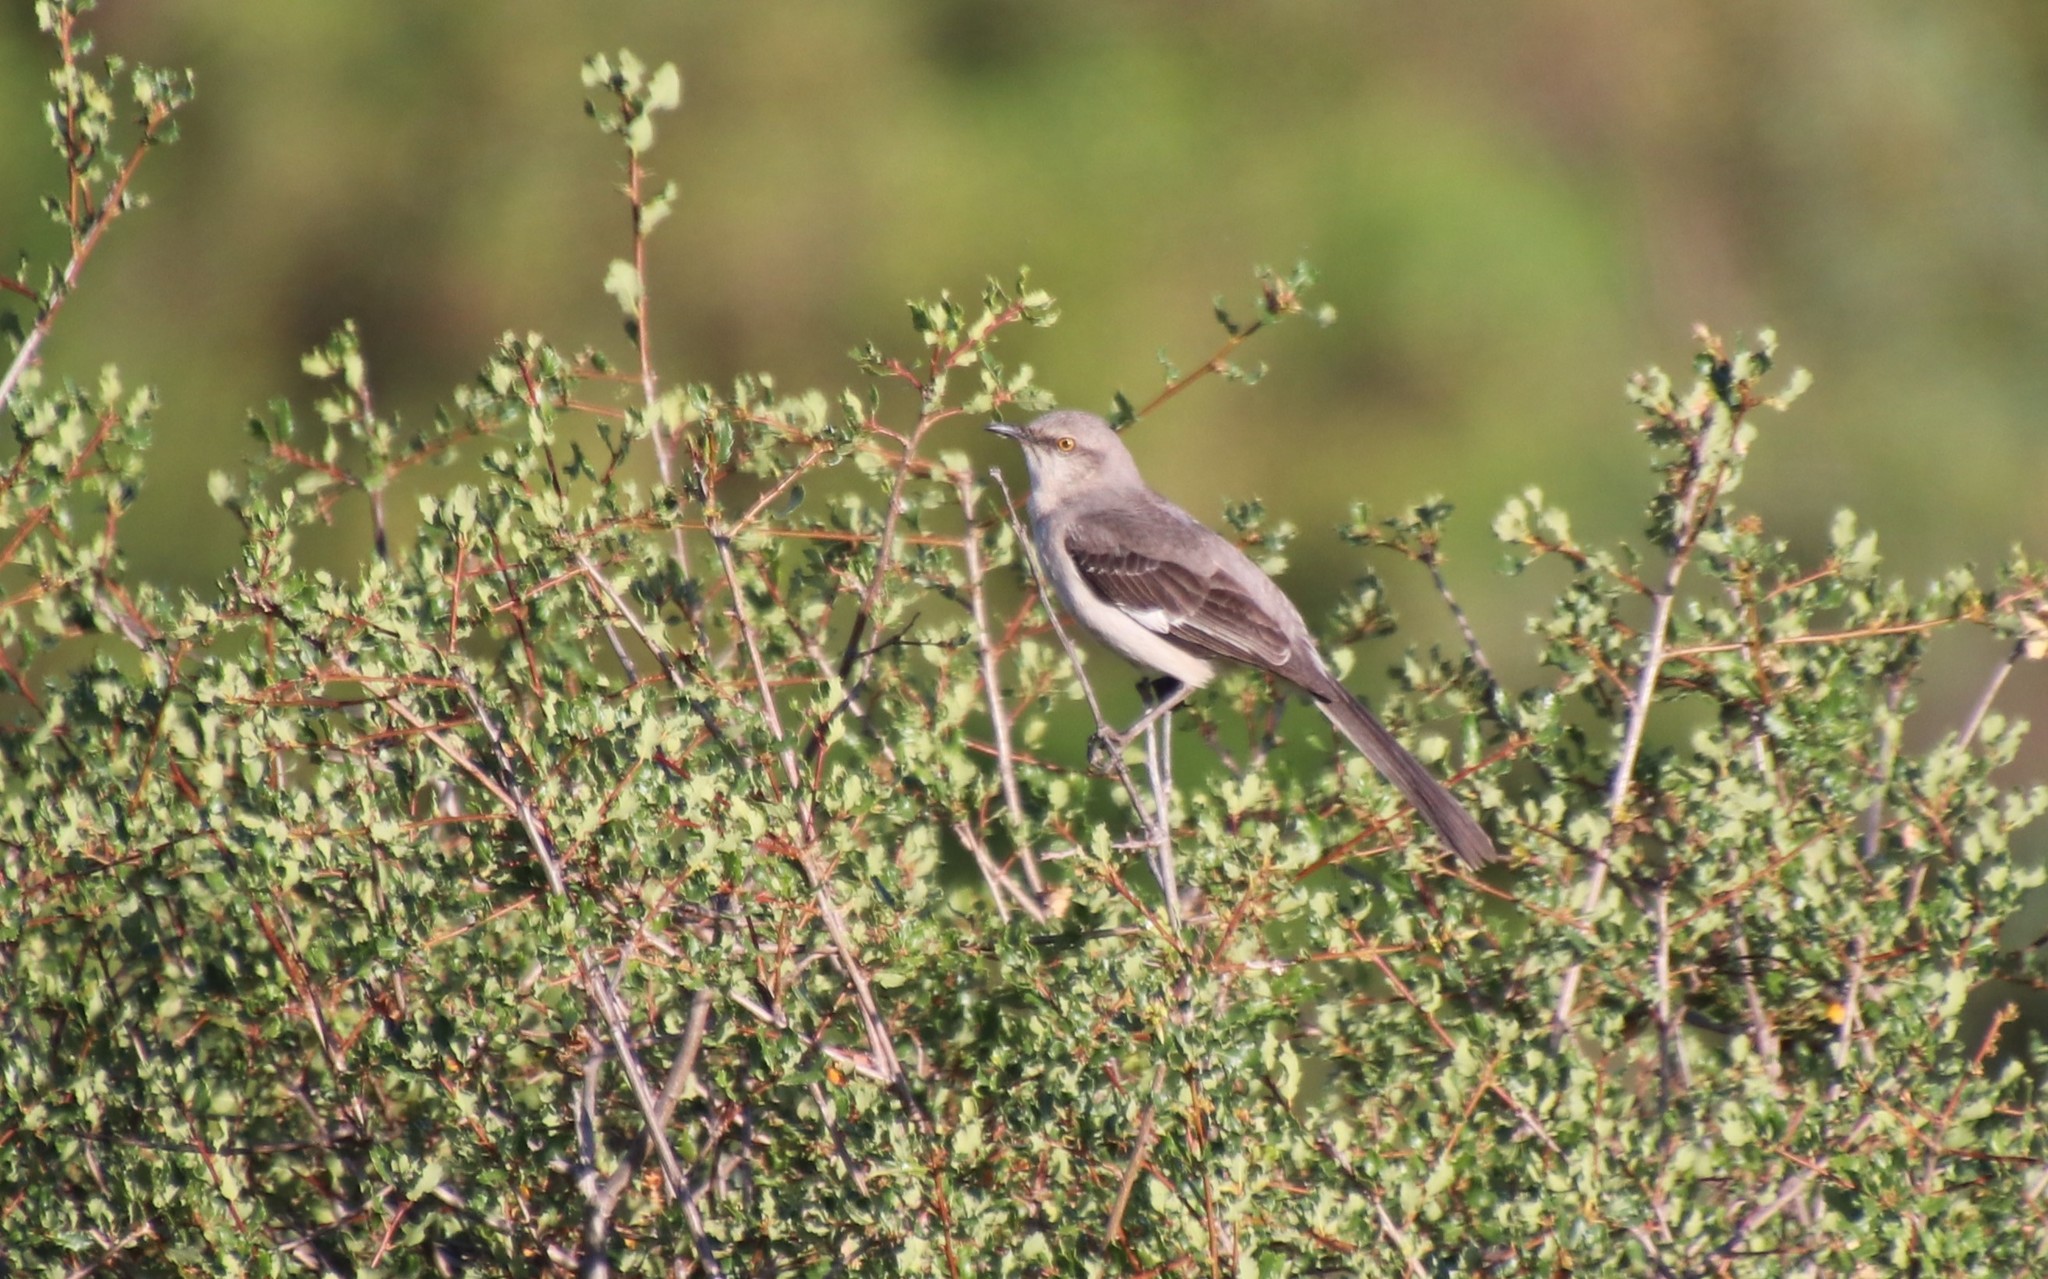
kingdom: Animalia
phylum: Chordata
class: Aves
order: Passeriformes
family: Mimidae
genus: Mimus
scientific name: Mimus polyglottos
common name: Northern mockingbird
